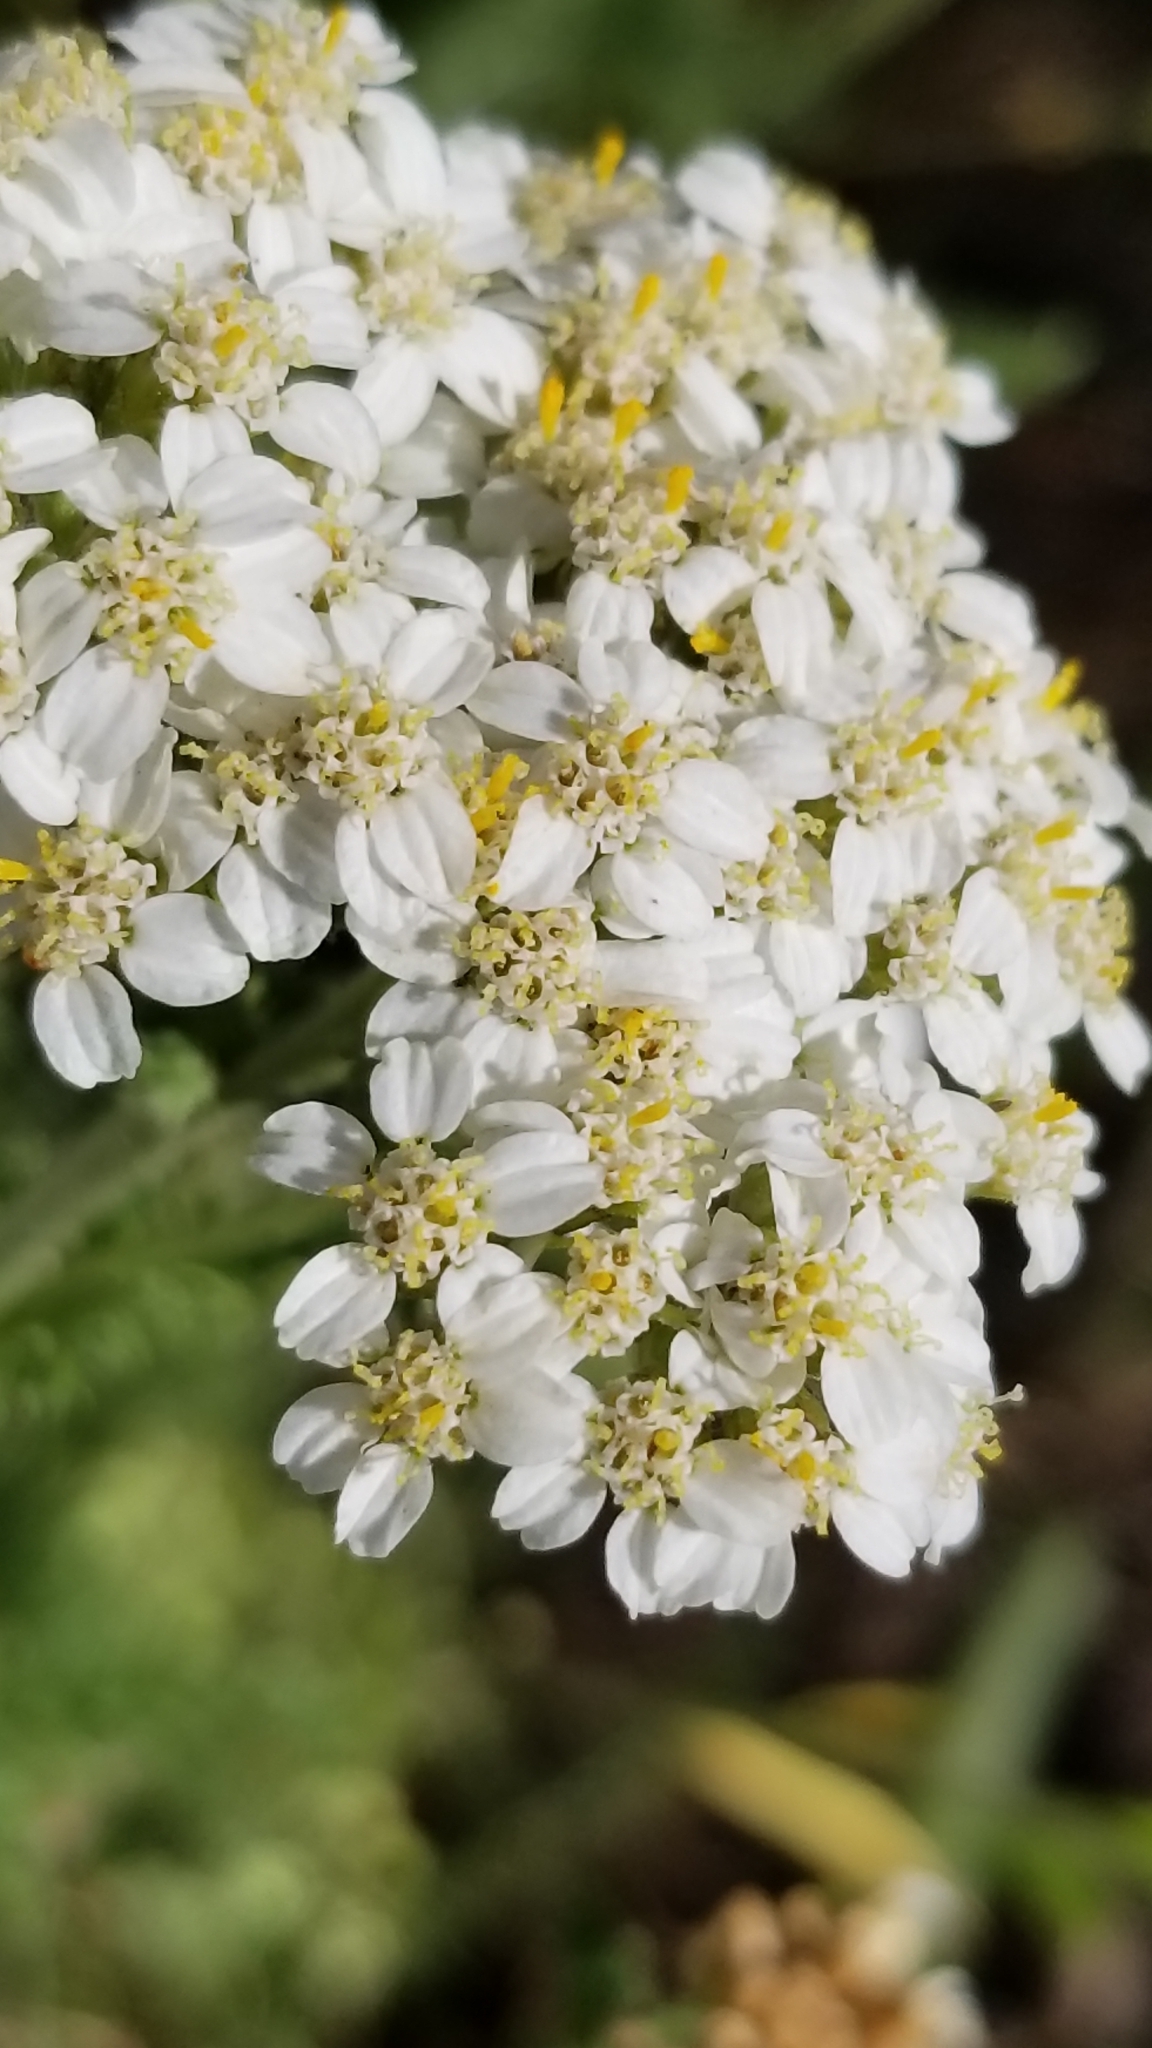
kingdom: Plantae
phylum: Tracheophyta
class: Magnoliopsida
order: Asterales
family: Asteraceae
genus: Achillea
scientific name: Achillea millefolium
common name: Yarrow
